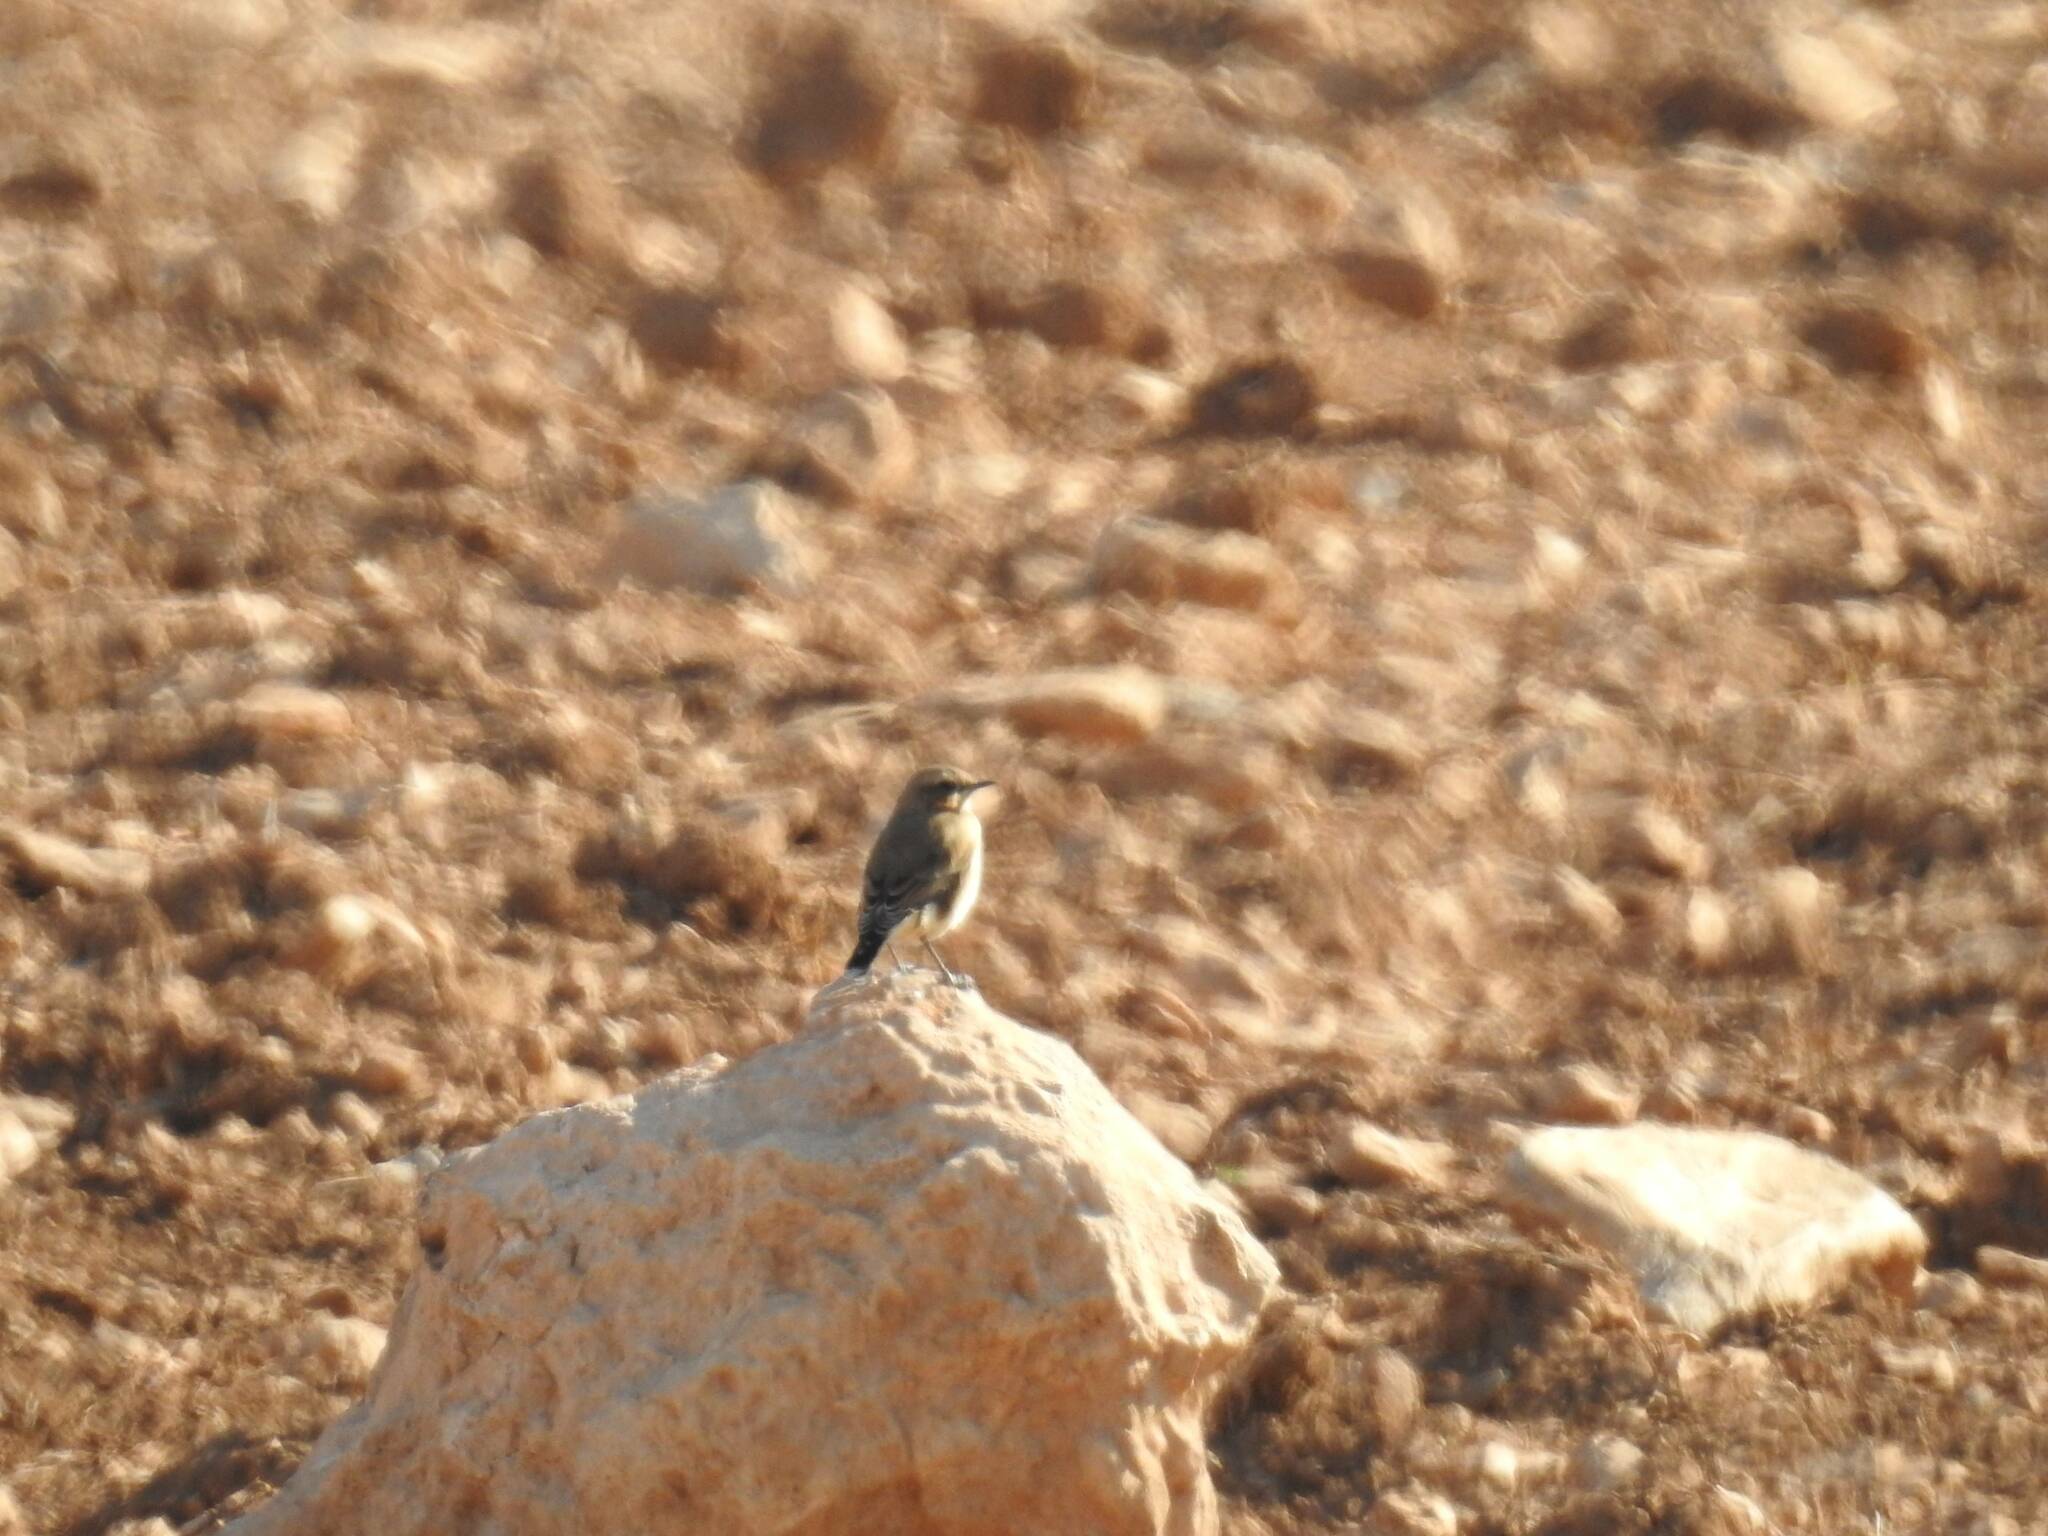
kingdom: Animalia
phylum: Chordata
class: Aves
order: Passeriformes
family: Muscicapidae
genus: Oenanthe
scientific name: Oenanthe oenanthe
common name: Northern wheatear
